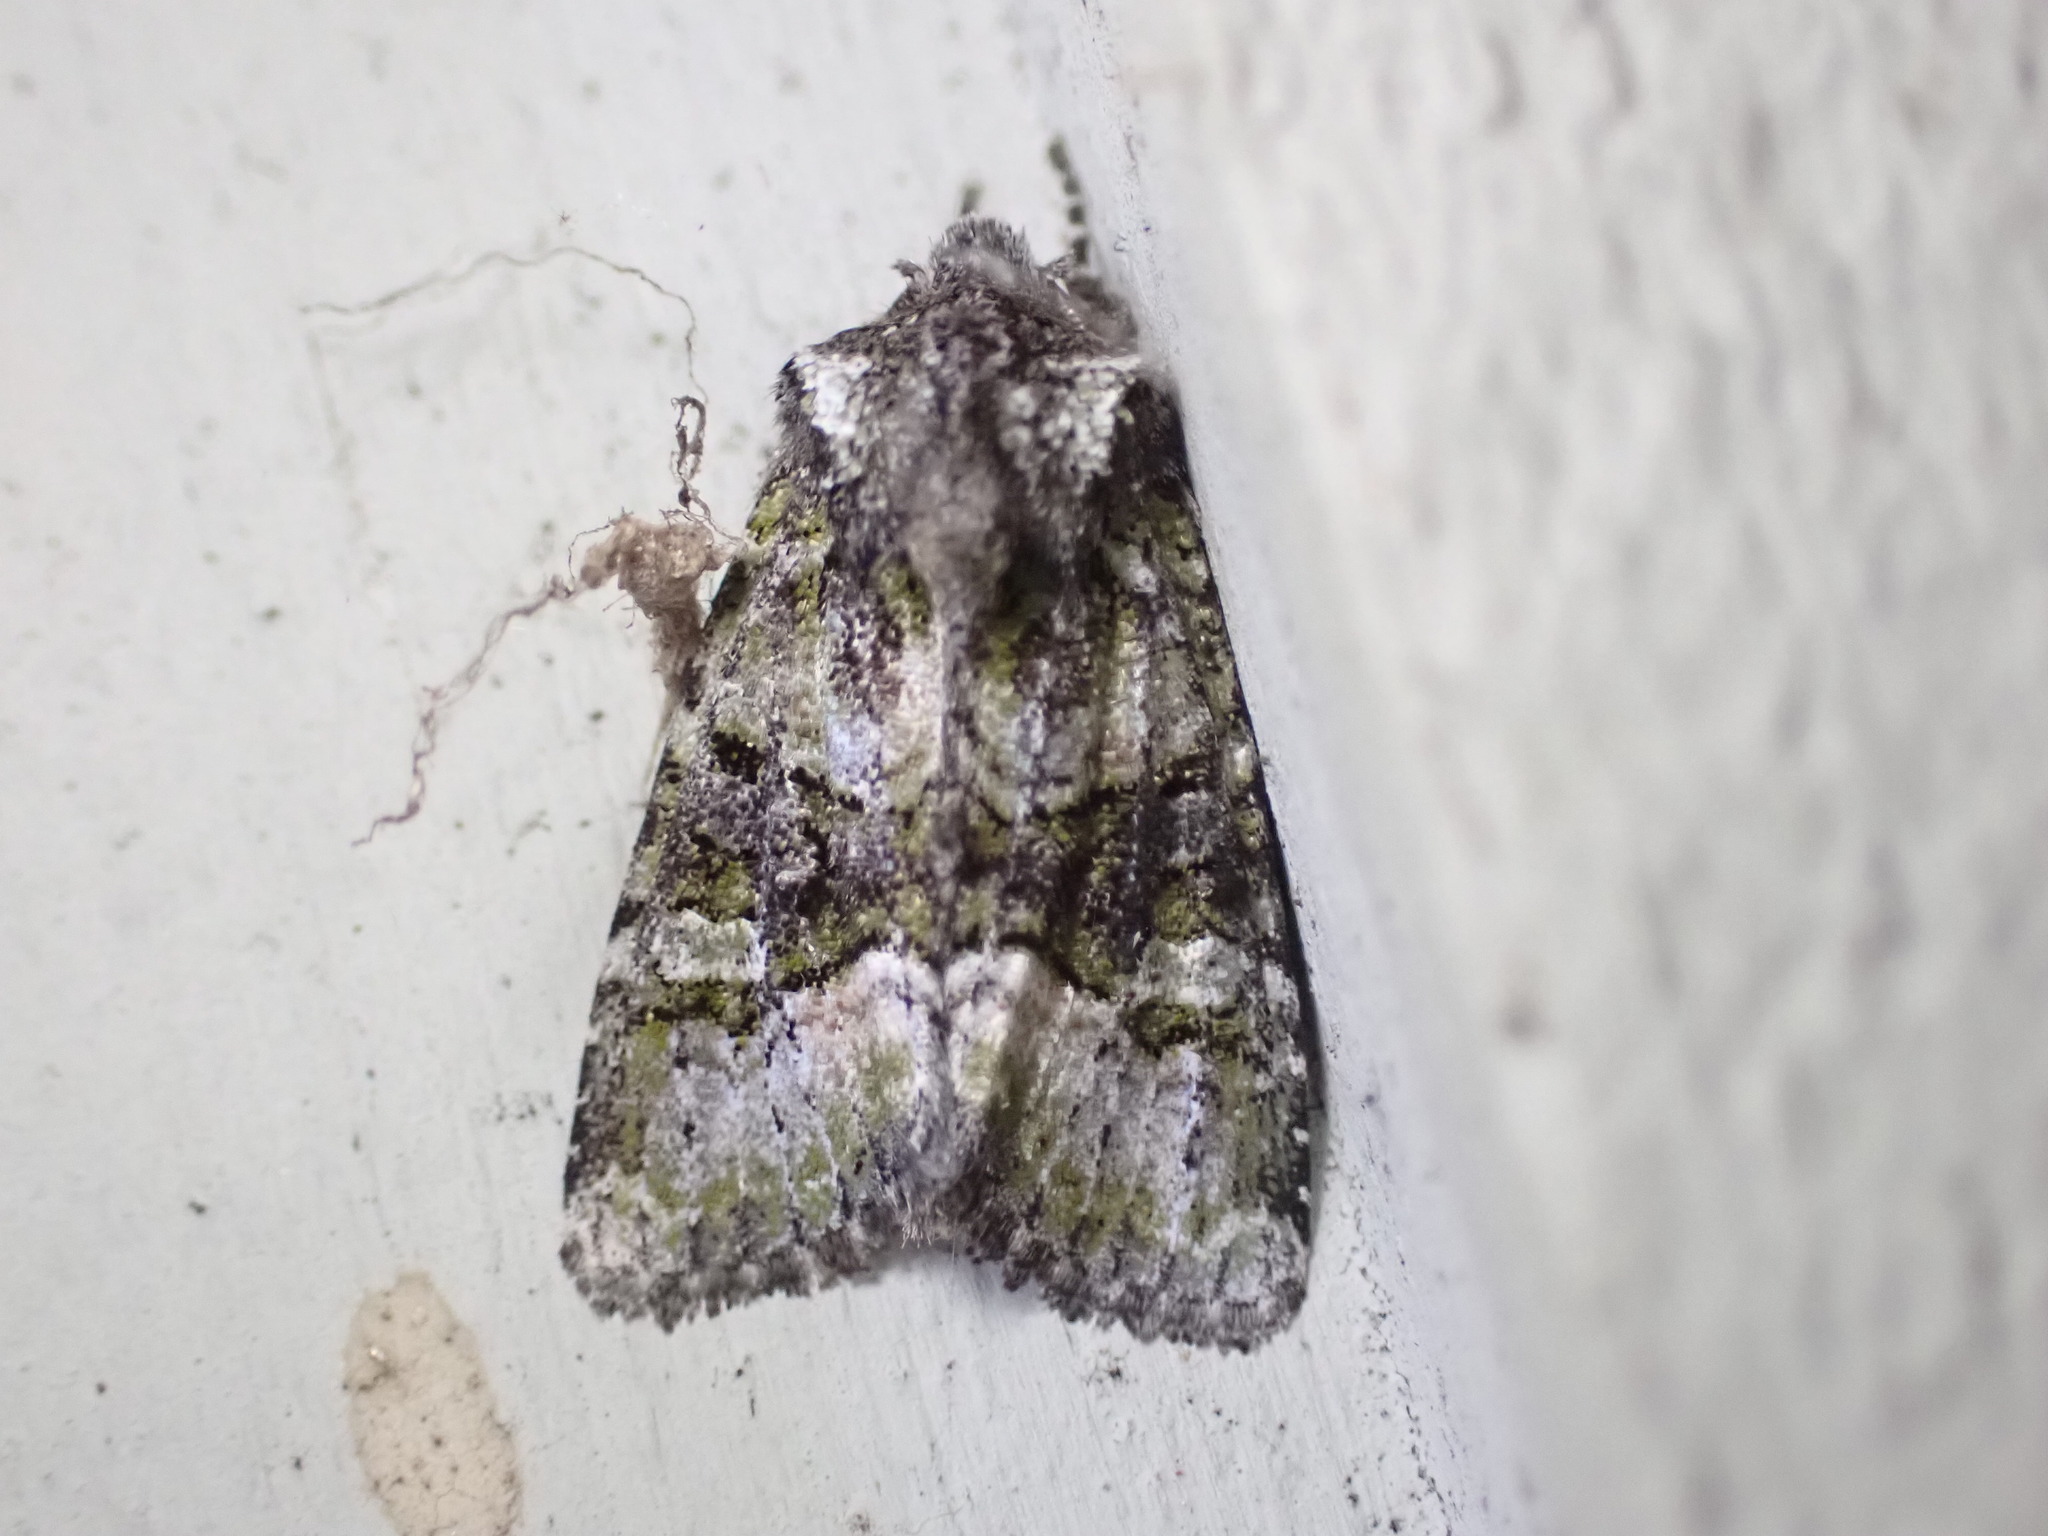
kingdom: Animalia
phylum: Arthropoda
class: Insecta
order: Lepidoptera
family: Noctuidae
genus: Lacinipolia
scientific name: Lacinipolia olivacea
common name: Olive arches moth
